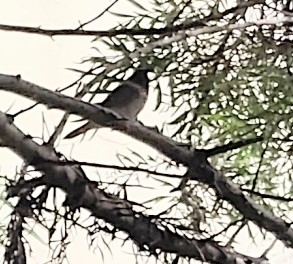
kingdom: Animalia
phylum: Chordata
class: Aves
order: Passeriformes
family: Estrildidae
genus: Lonchura
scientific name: Lonchura punctulata
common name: Scaly-breasted munia
